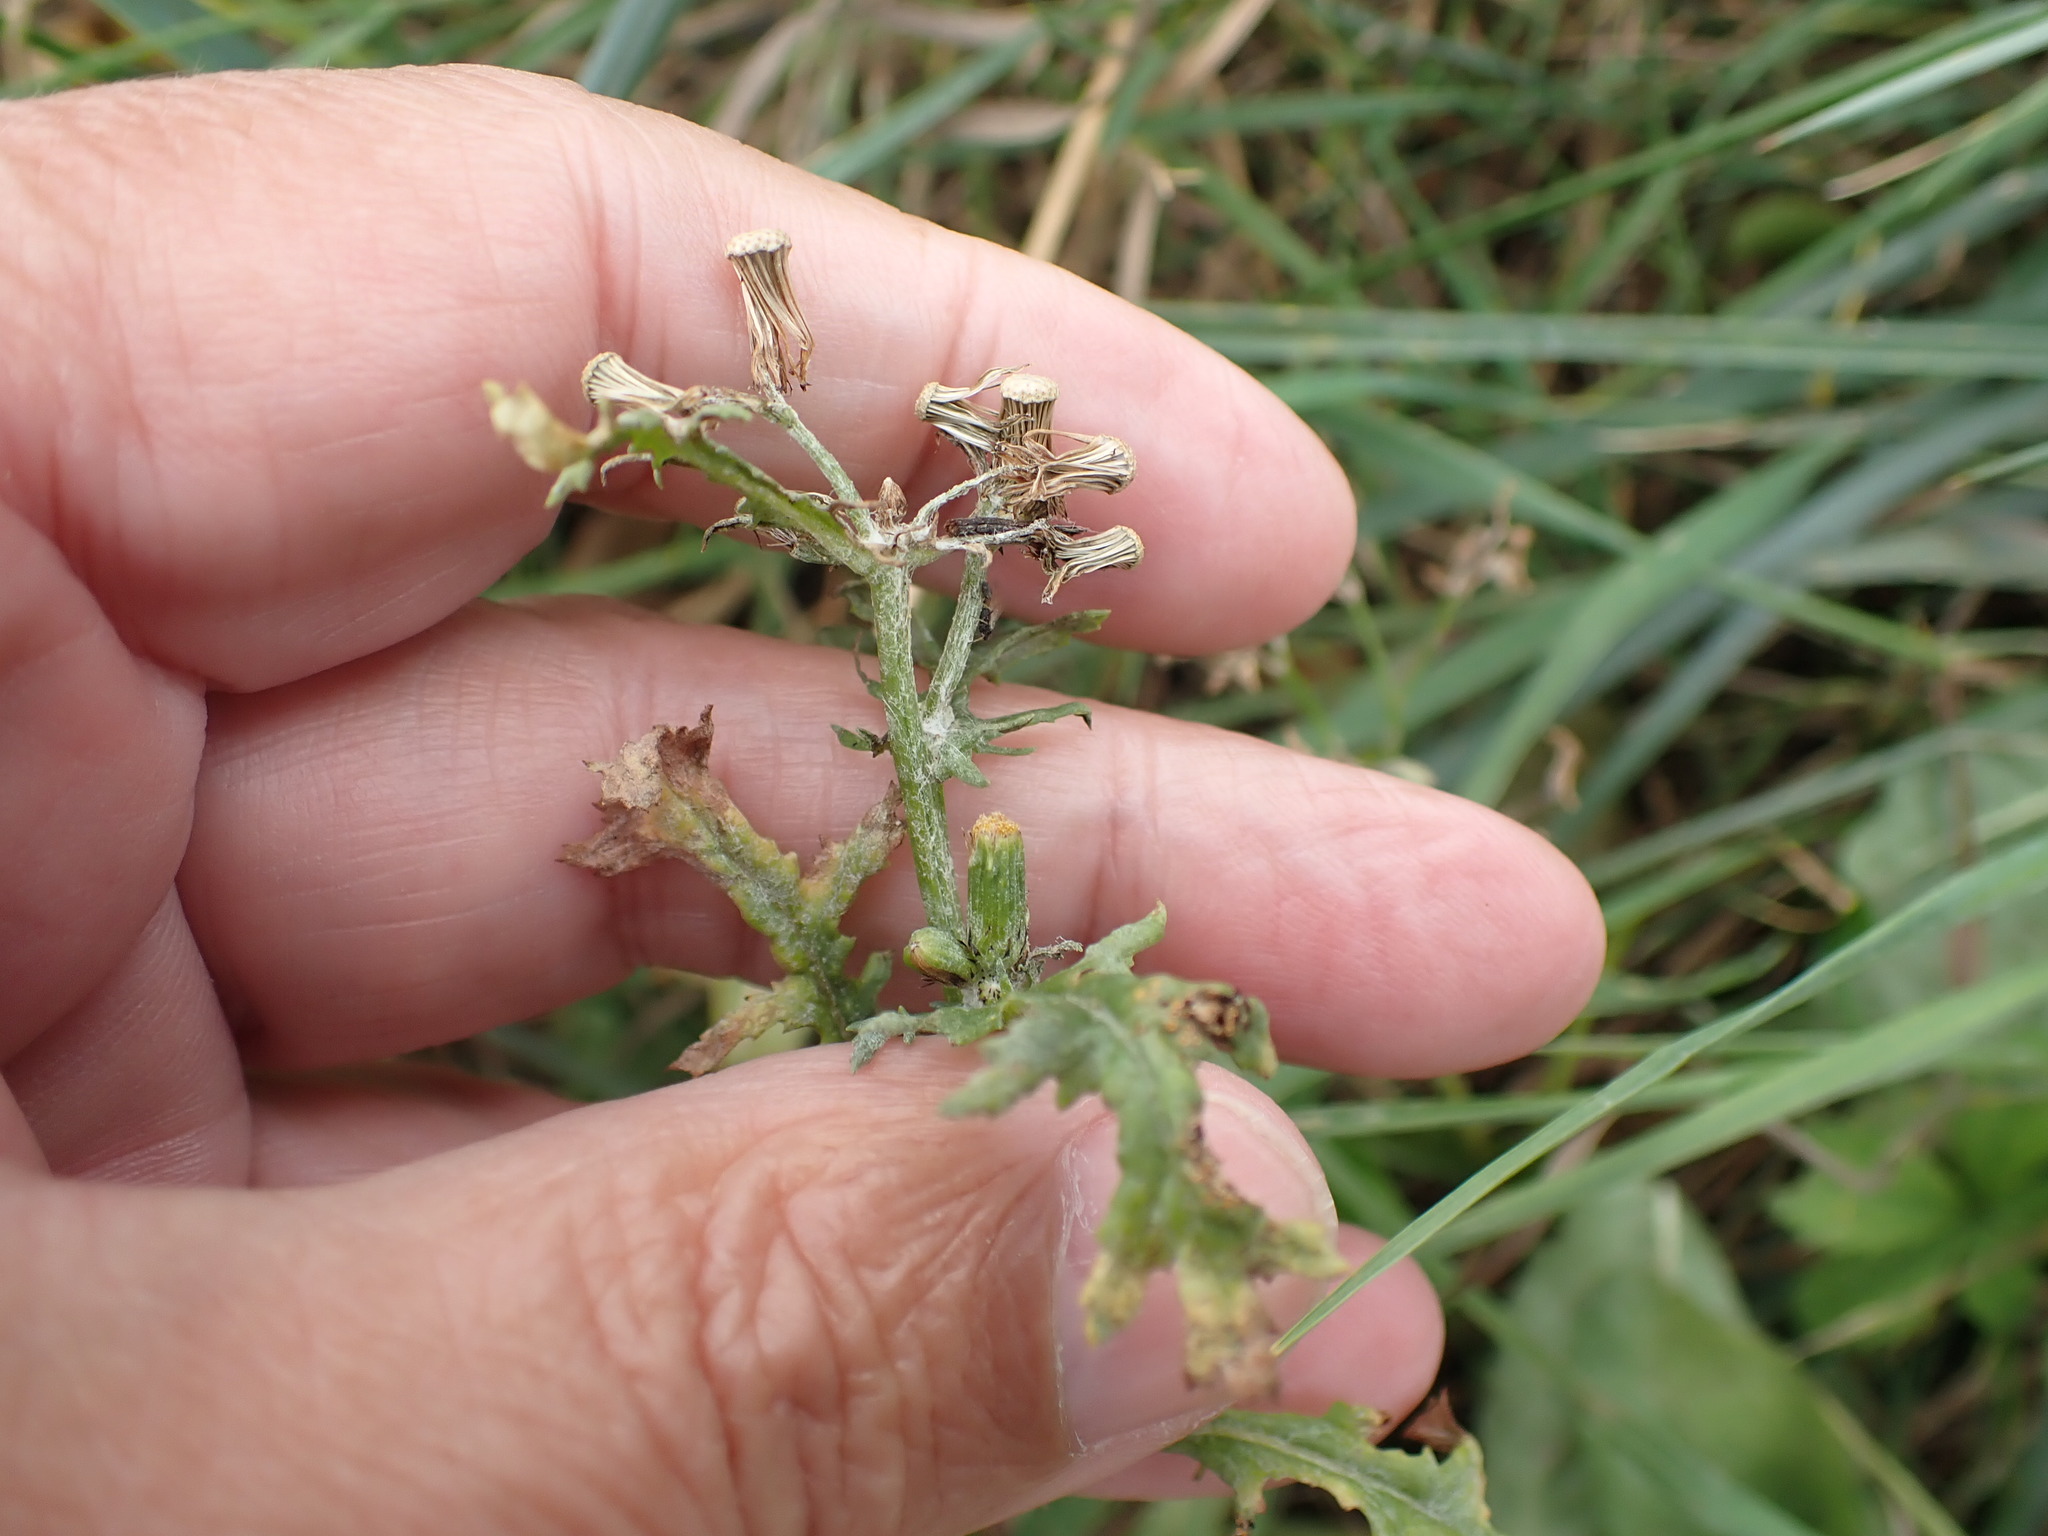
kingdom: Plantae
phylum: Tracheophyta
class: Magnoliopsida
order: Asterales
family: Asteraceae
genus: Senecio
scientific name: Senecio vulgaris
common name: Old-man-in-the-spring
